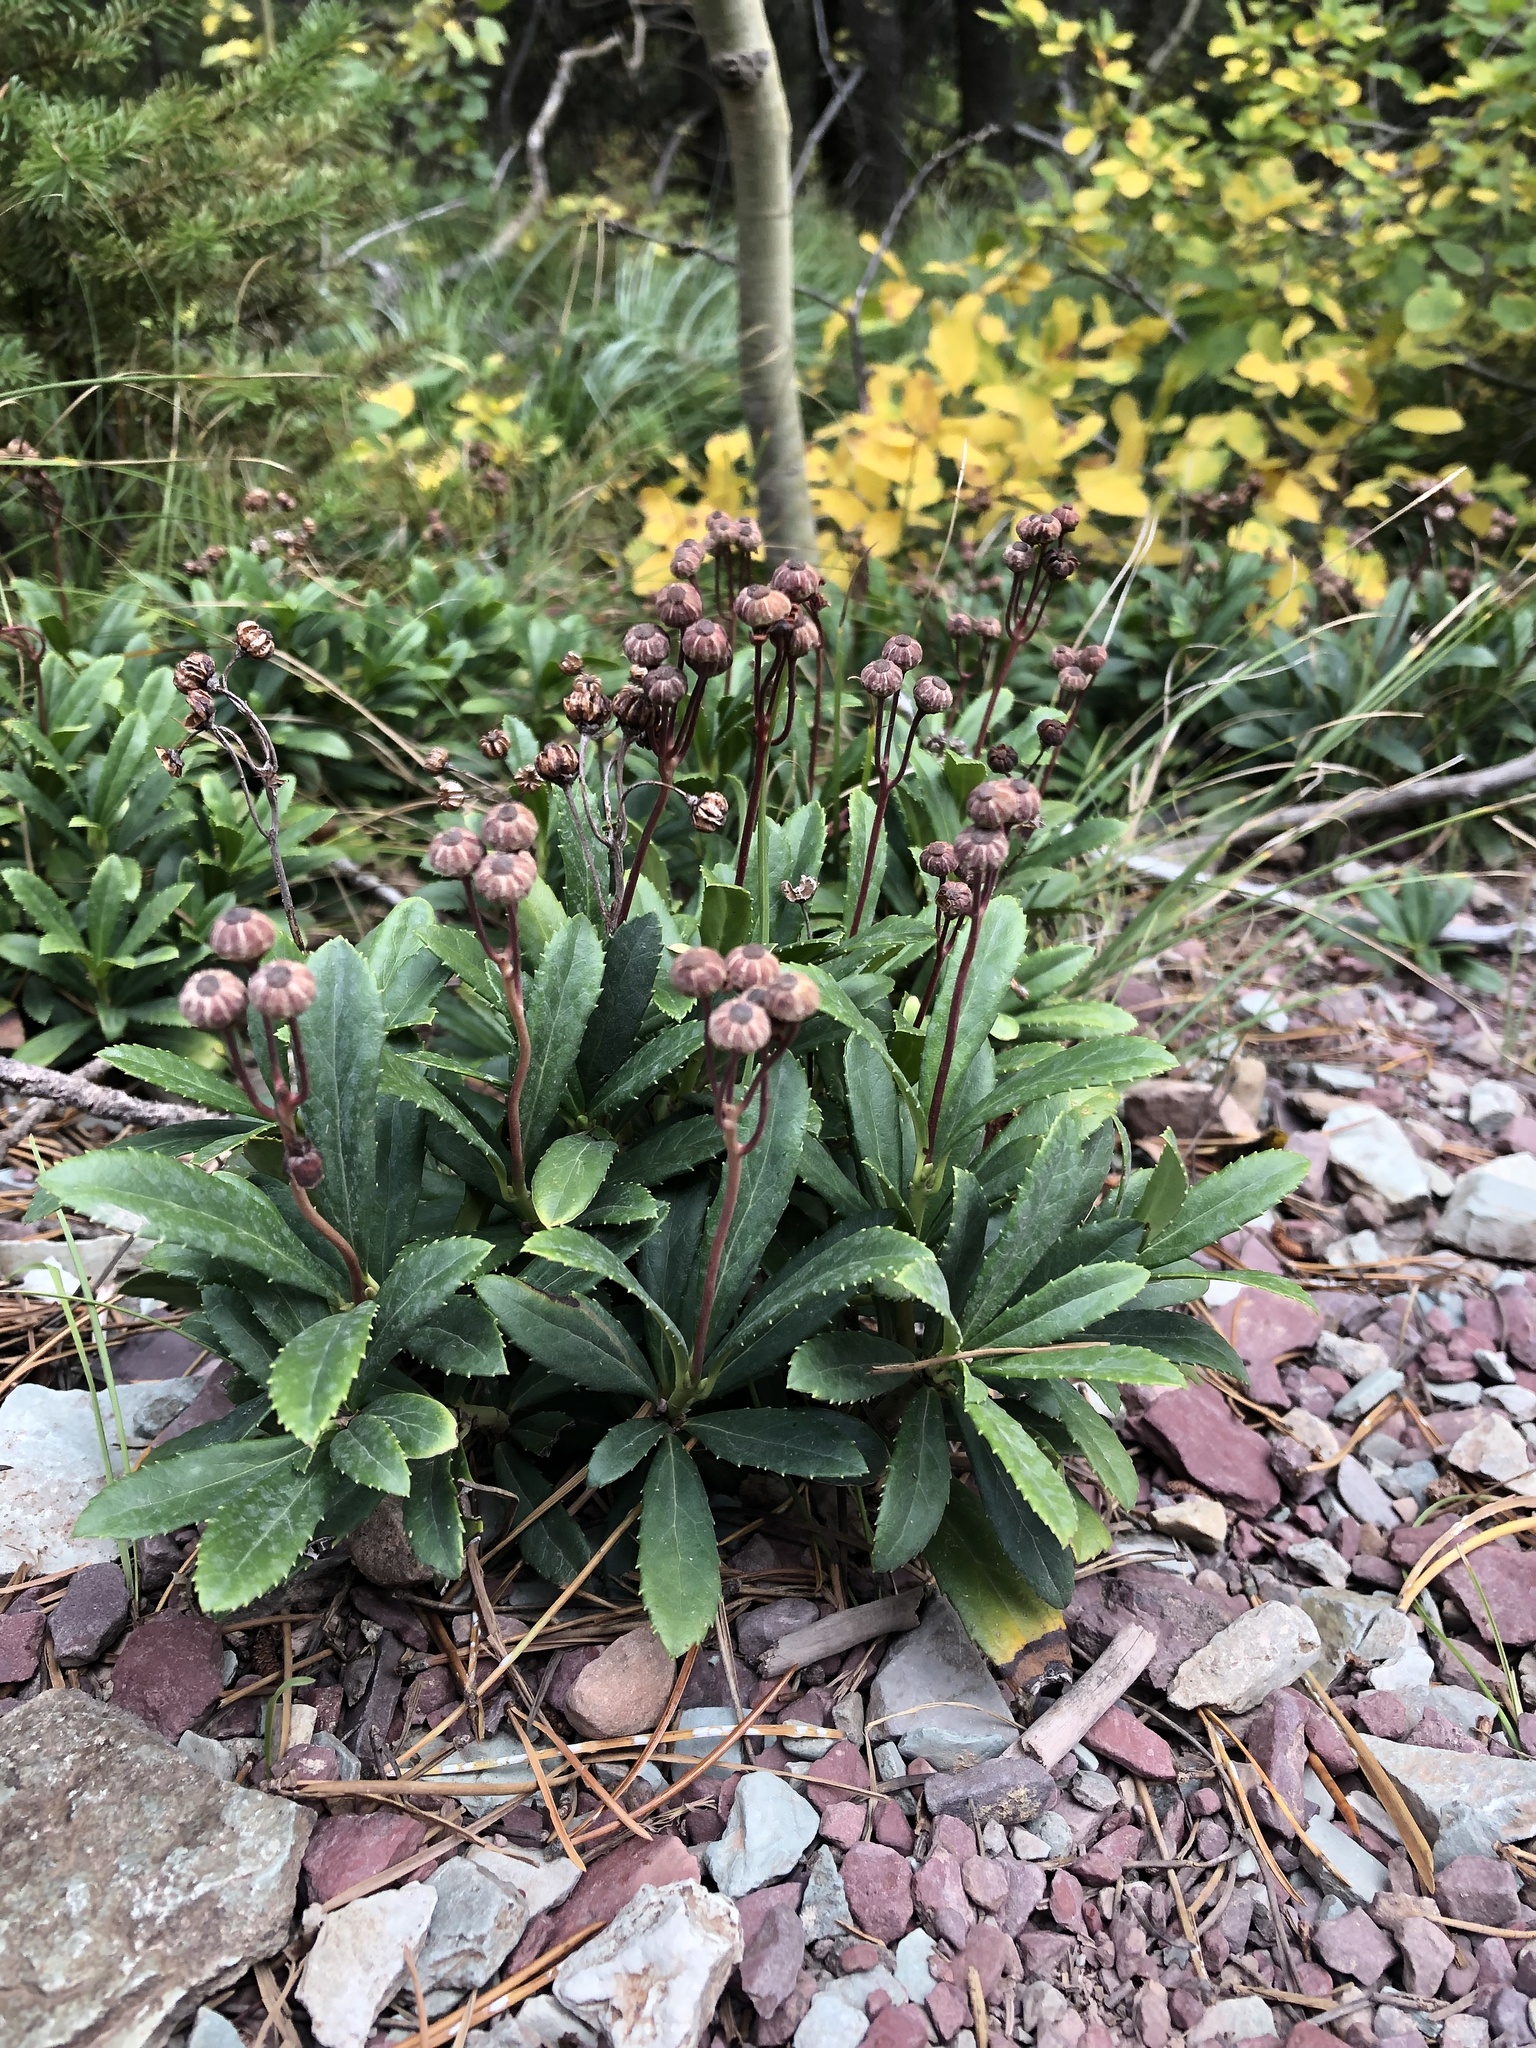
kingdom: Plantae
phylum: Tracheophyta
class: Magnoliopsida
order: Ericales
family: Ericaceae
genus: Chimaphila
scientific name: Chimaphila umbellata
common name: Pipsissewa
